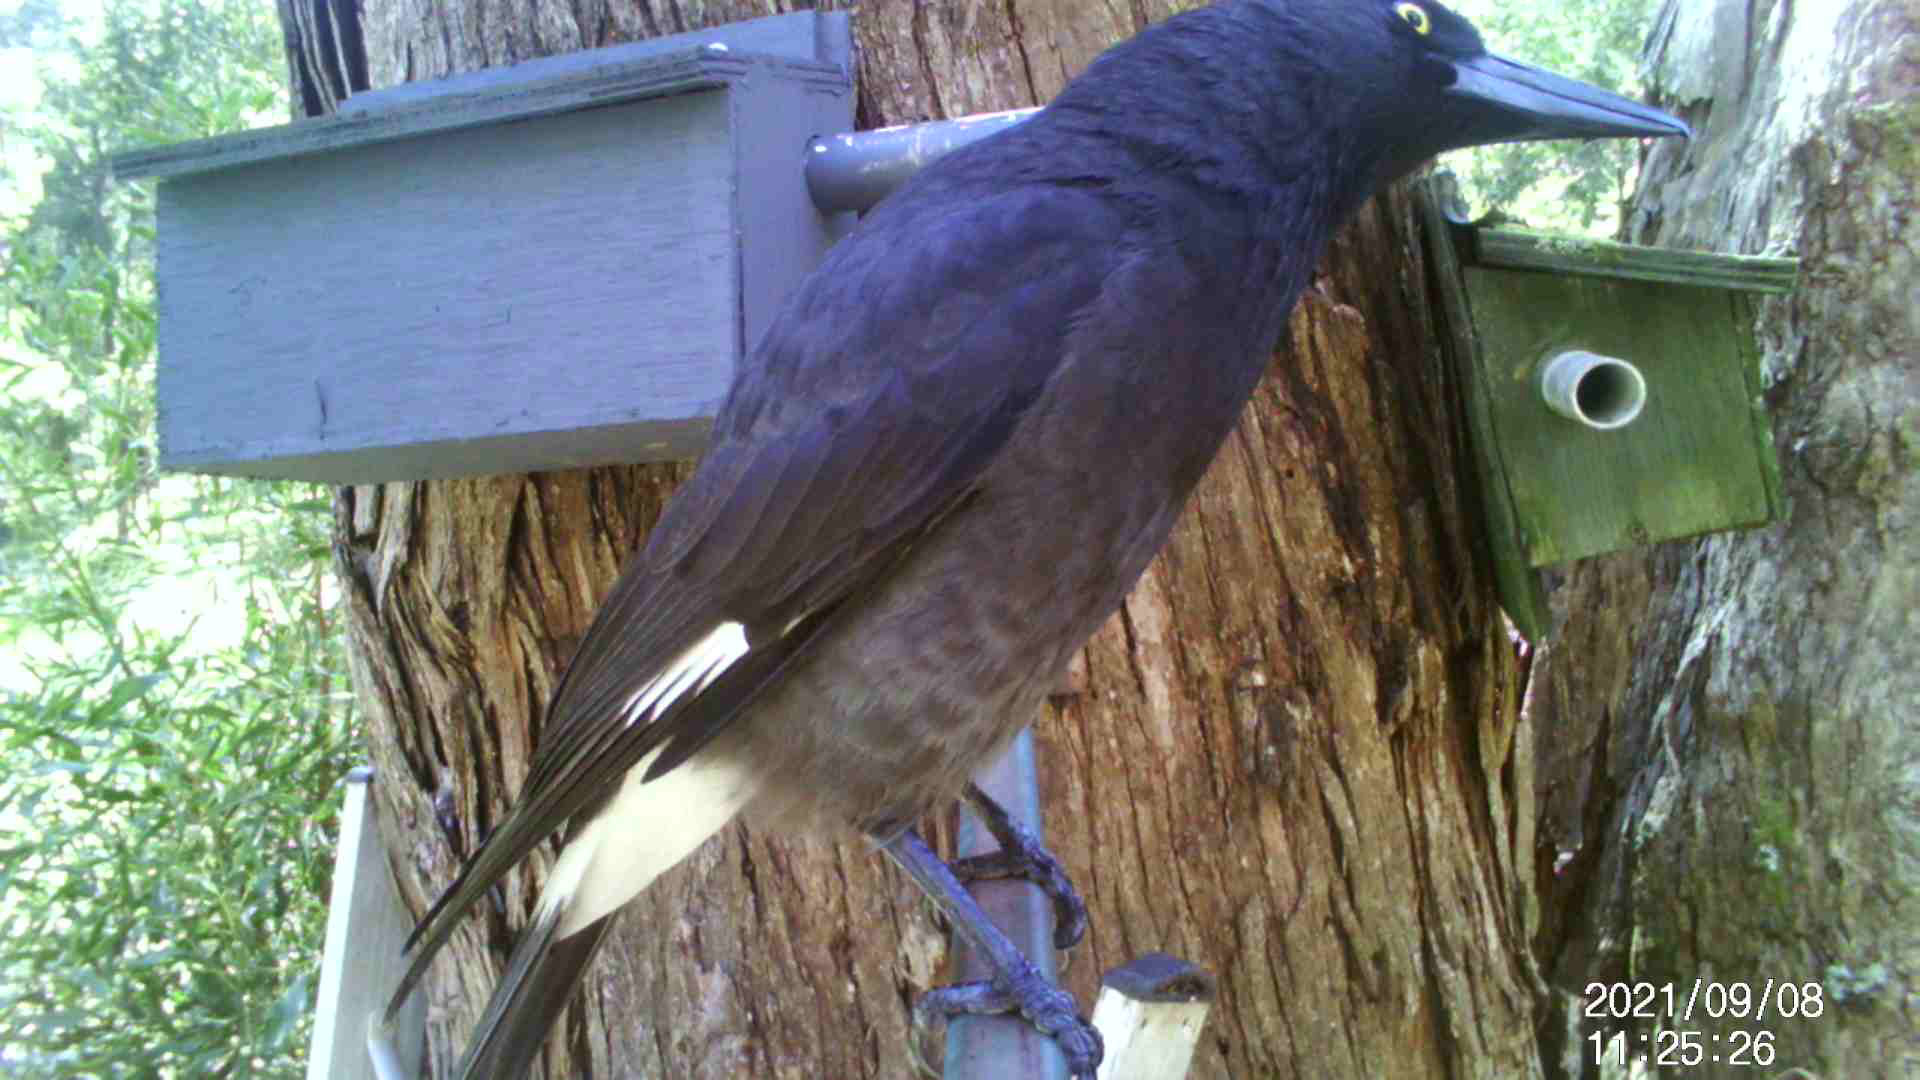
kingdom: Animalia
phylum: Chordata
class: Aves
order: Passeriformes
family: Cracticidae
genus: Strepera
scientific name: Strepera graculina
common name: Pied currawong
